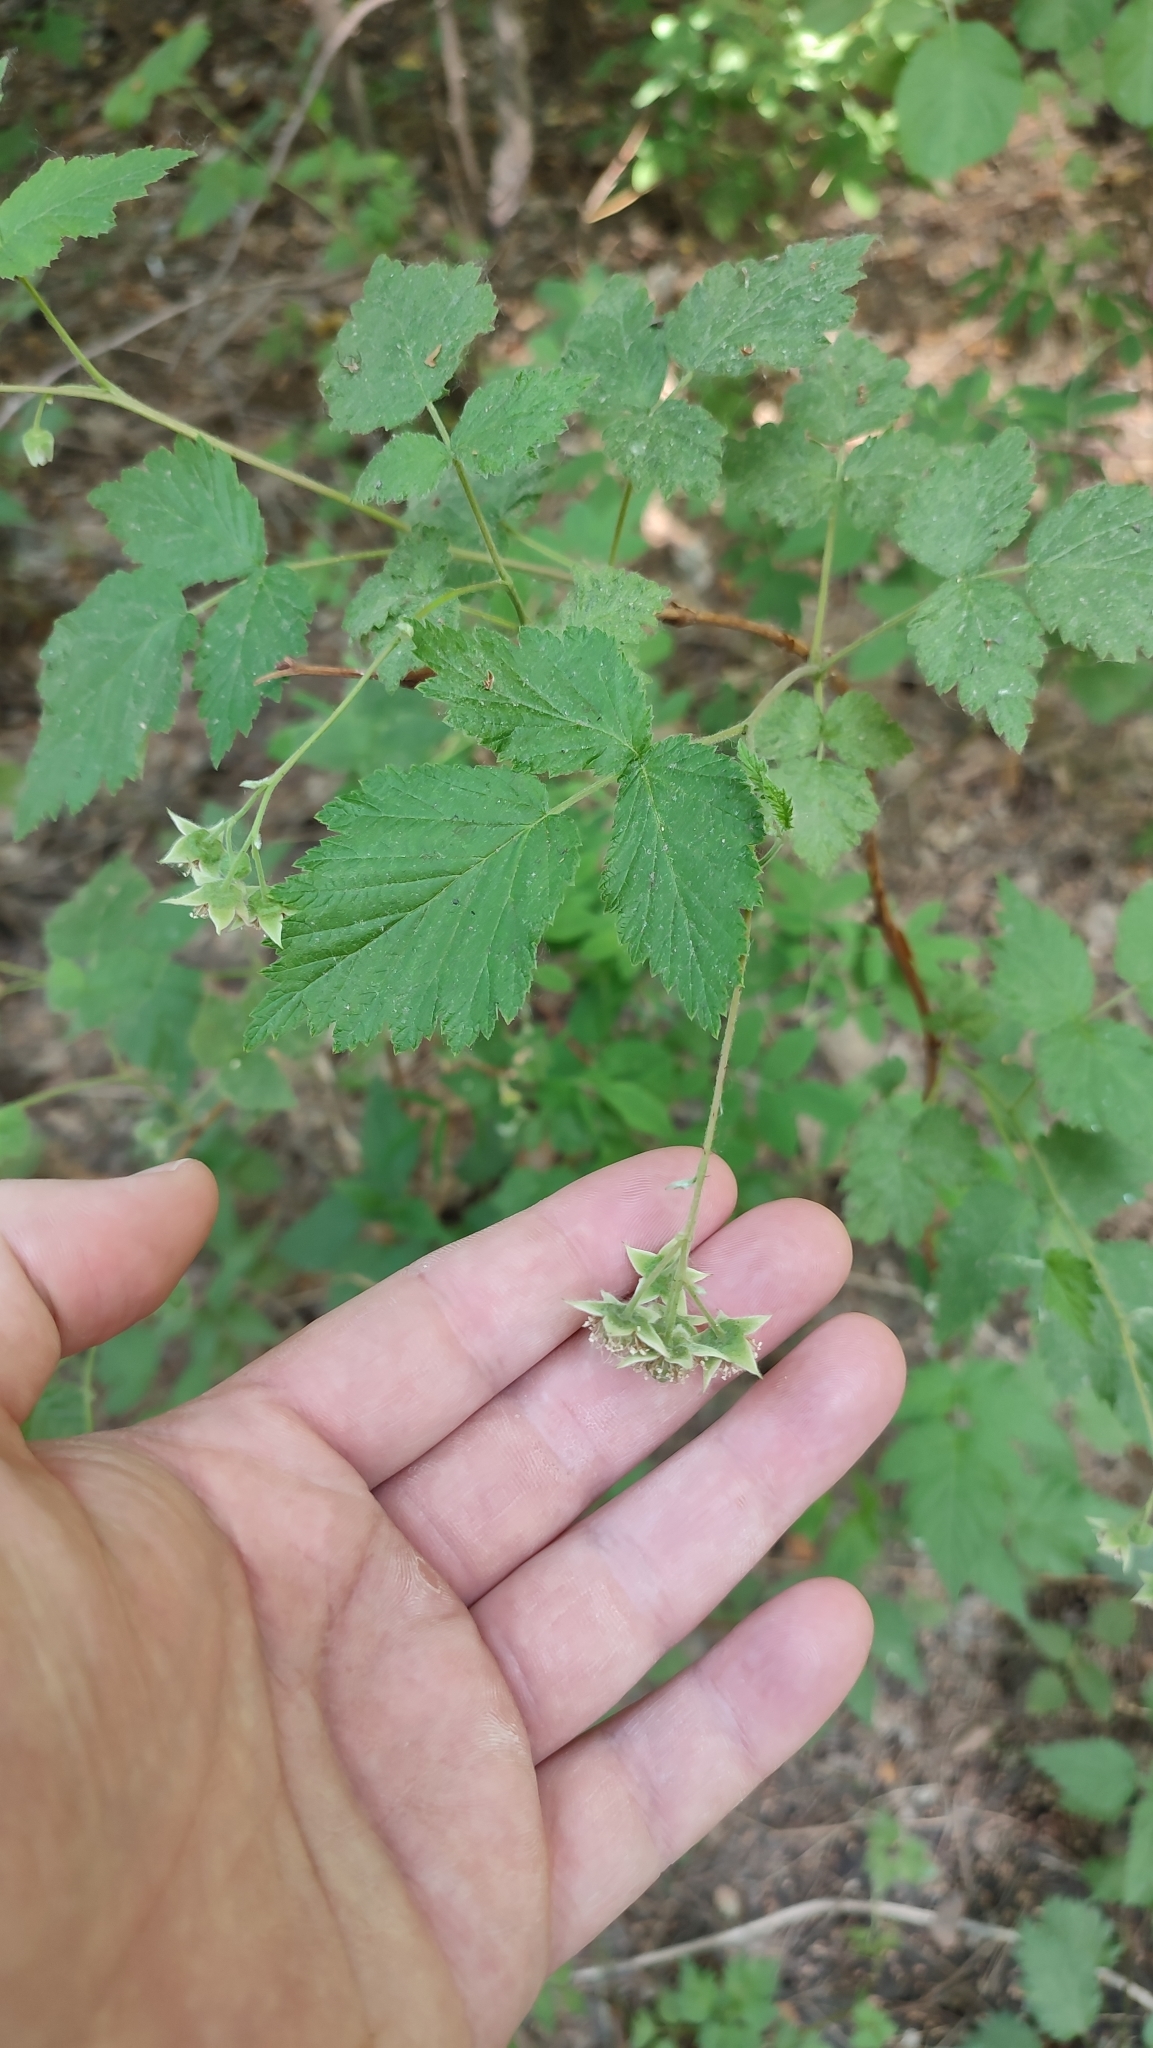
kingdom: Plantae
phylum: Tracheophyta
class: Magnoliopsida
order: Rosales
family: Rosaceae
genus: Rubus
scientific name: Rubus idaeus
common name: Raspberry
